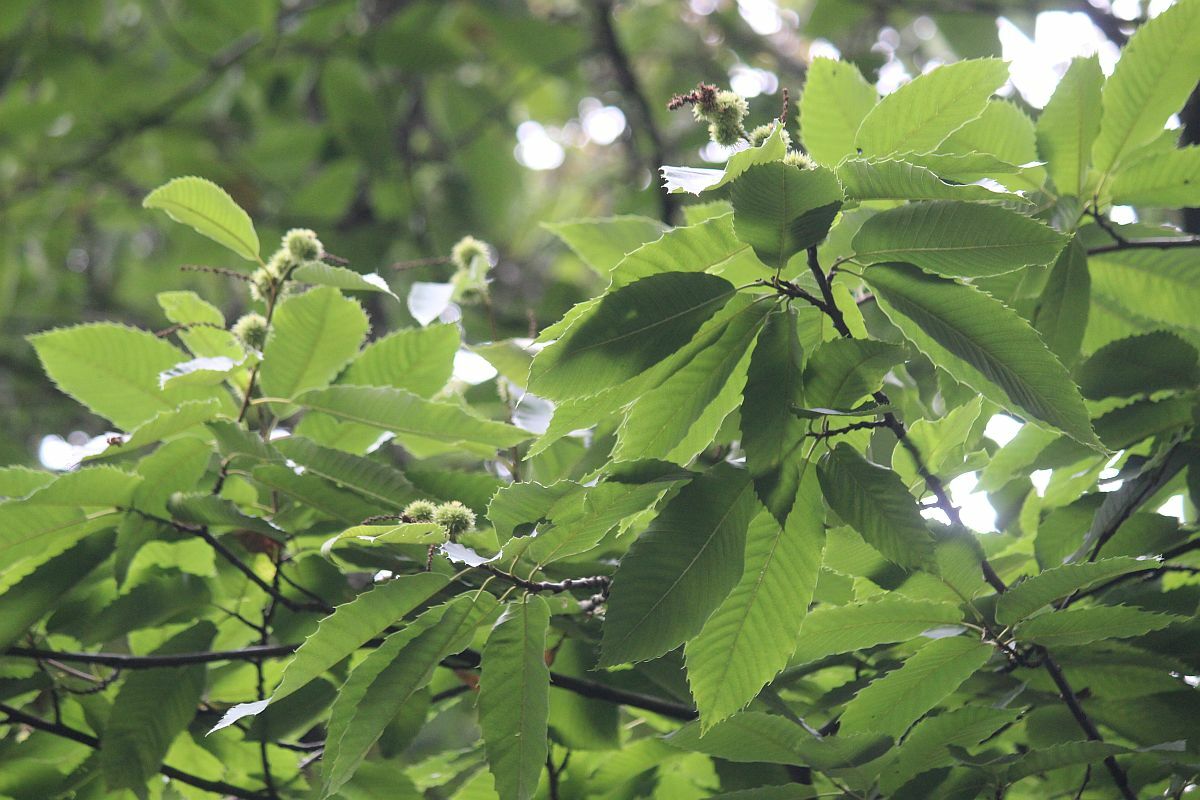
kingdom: Plantae
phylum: Tracheophyta
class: Magnoliopsida
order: Fagales
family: Fagaceae
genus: Castanea
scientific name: Castanea sativa
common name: Sweet chestnut
